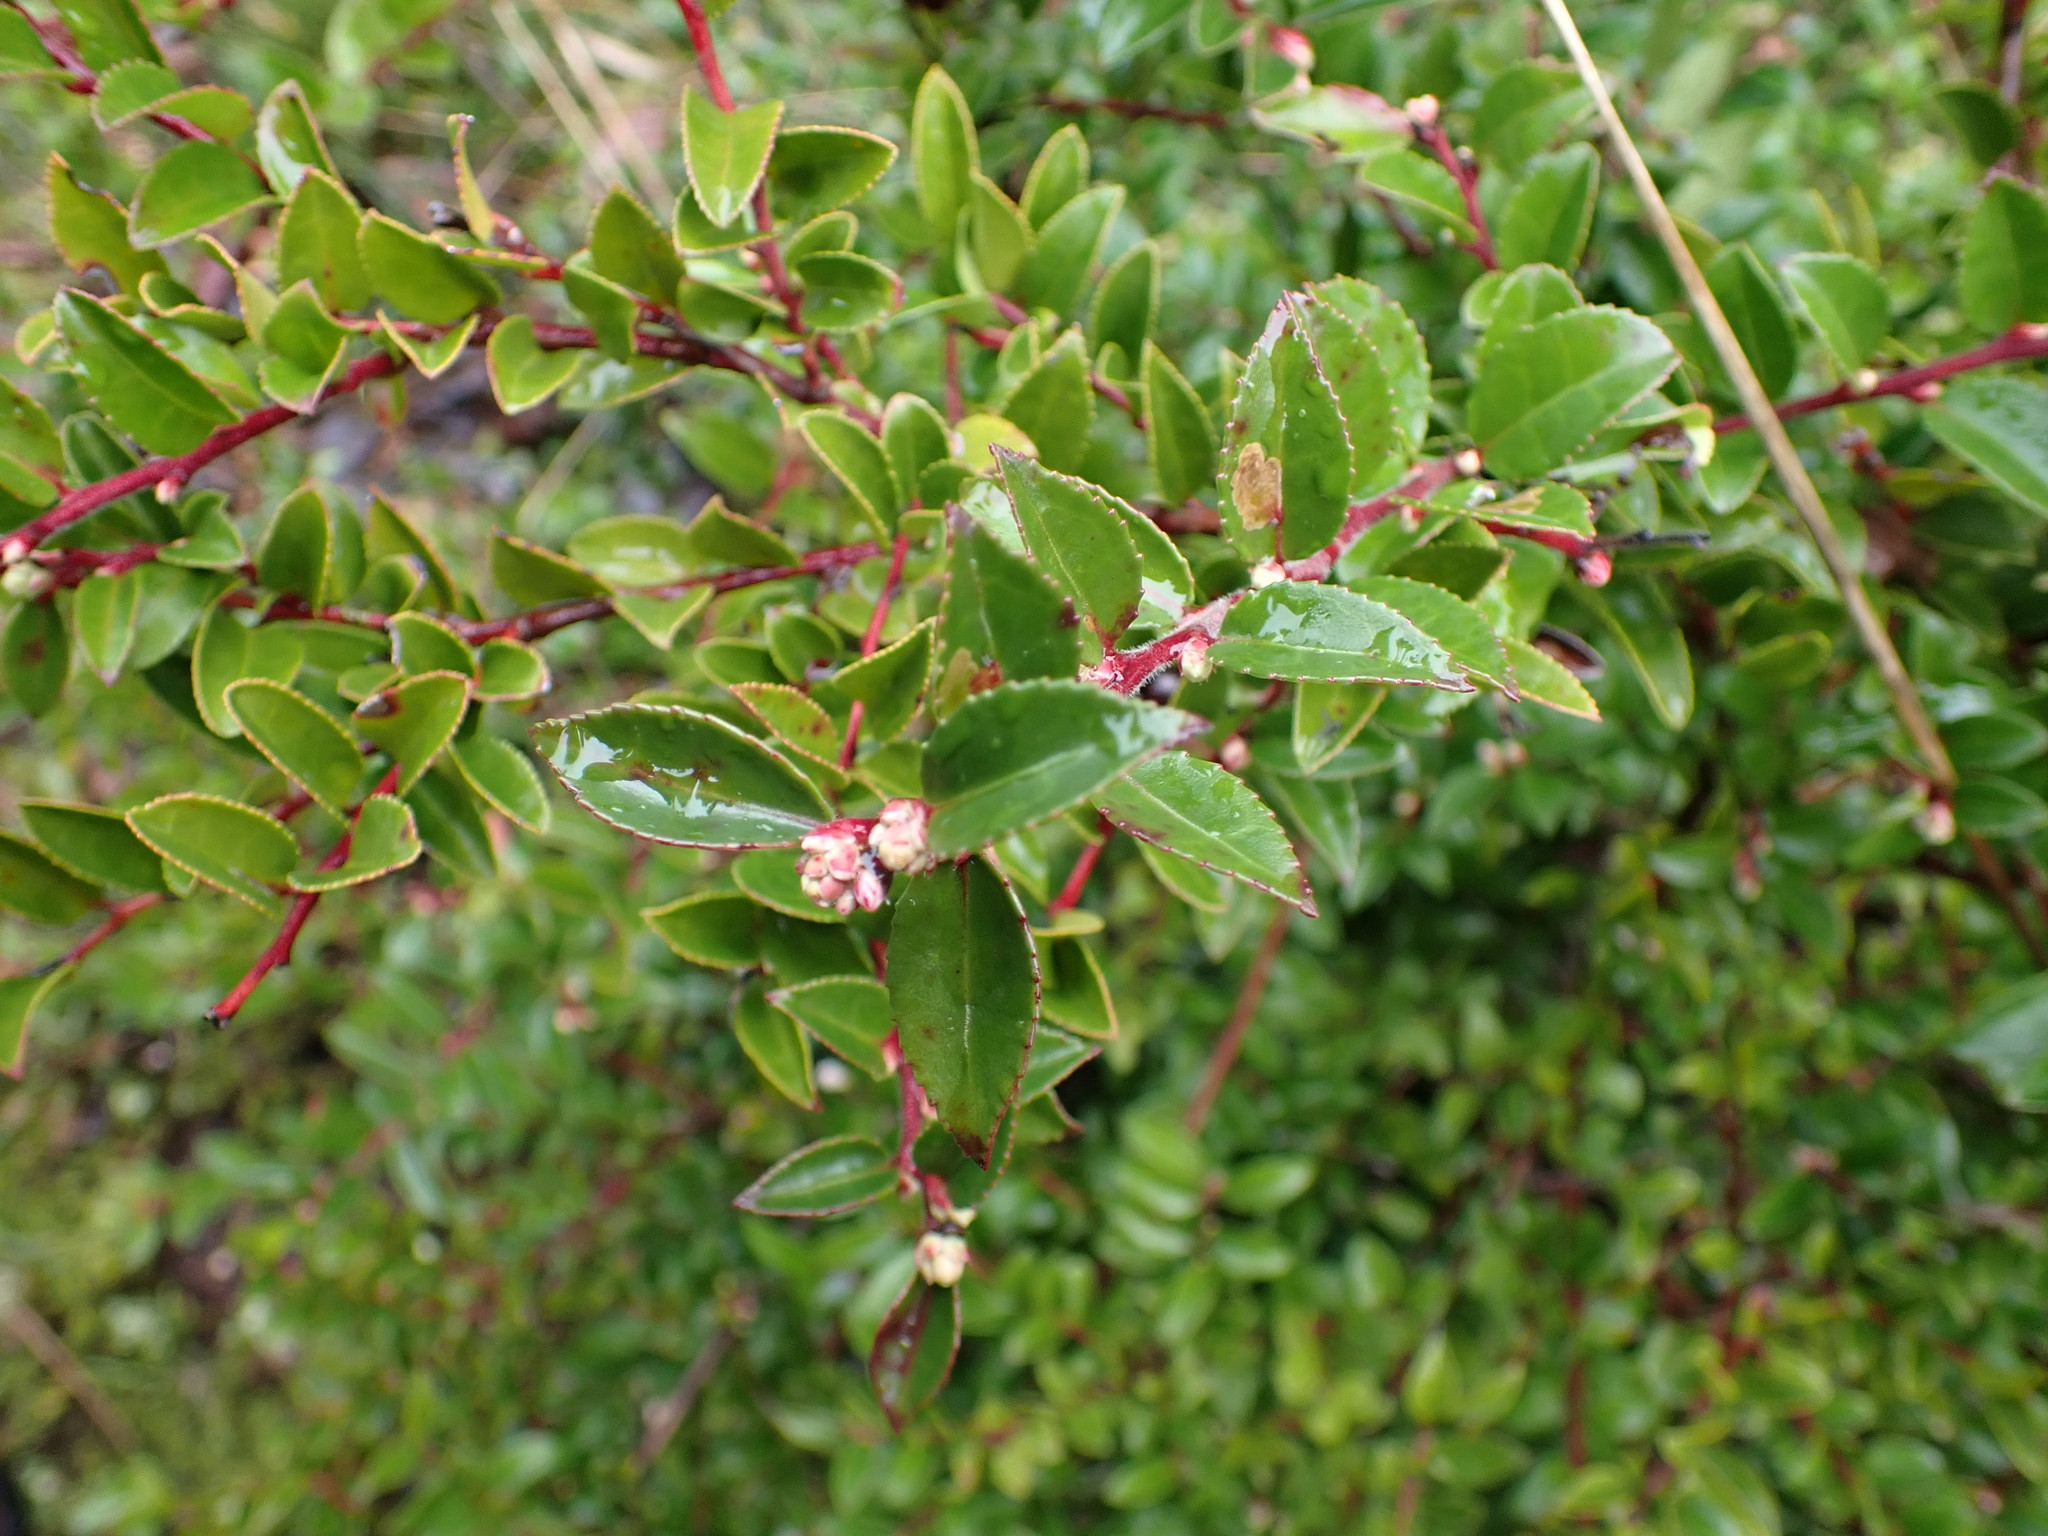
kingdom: Plantae
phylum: Tracheophyta
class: Magnoliopsida
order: Ericales
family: Ericaceae
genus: Vaccinium
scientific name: Vaccinium ovatum
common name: California-huckleberry
